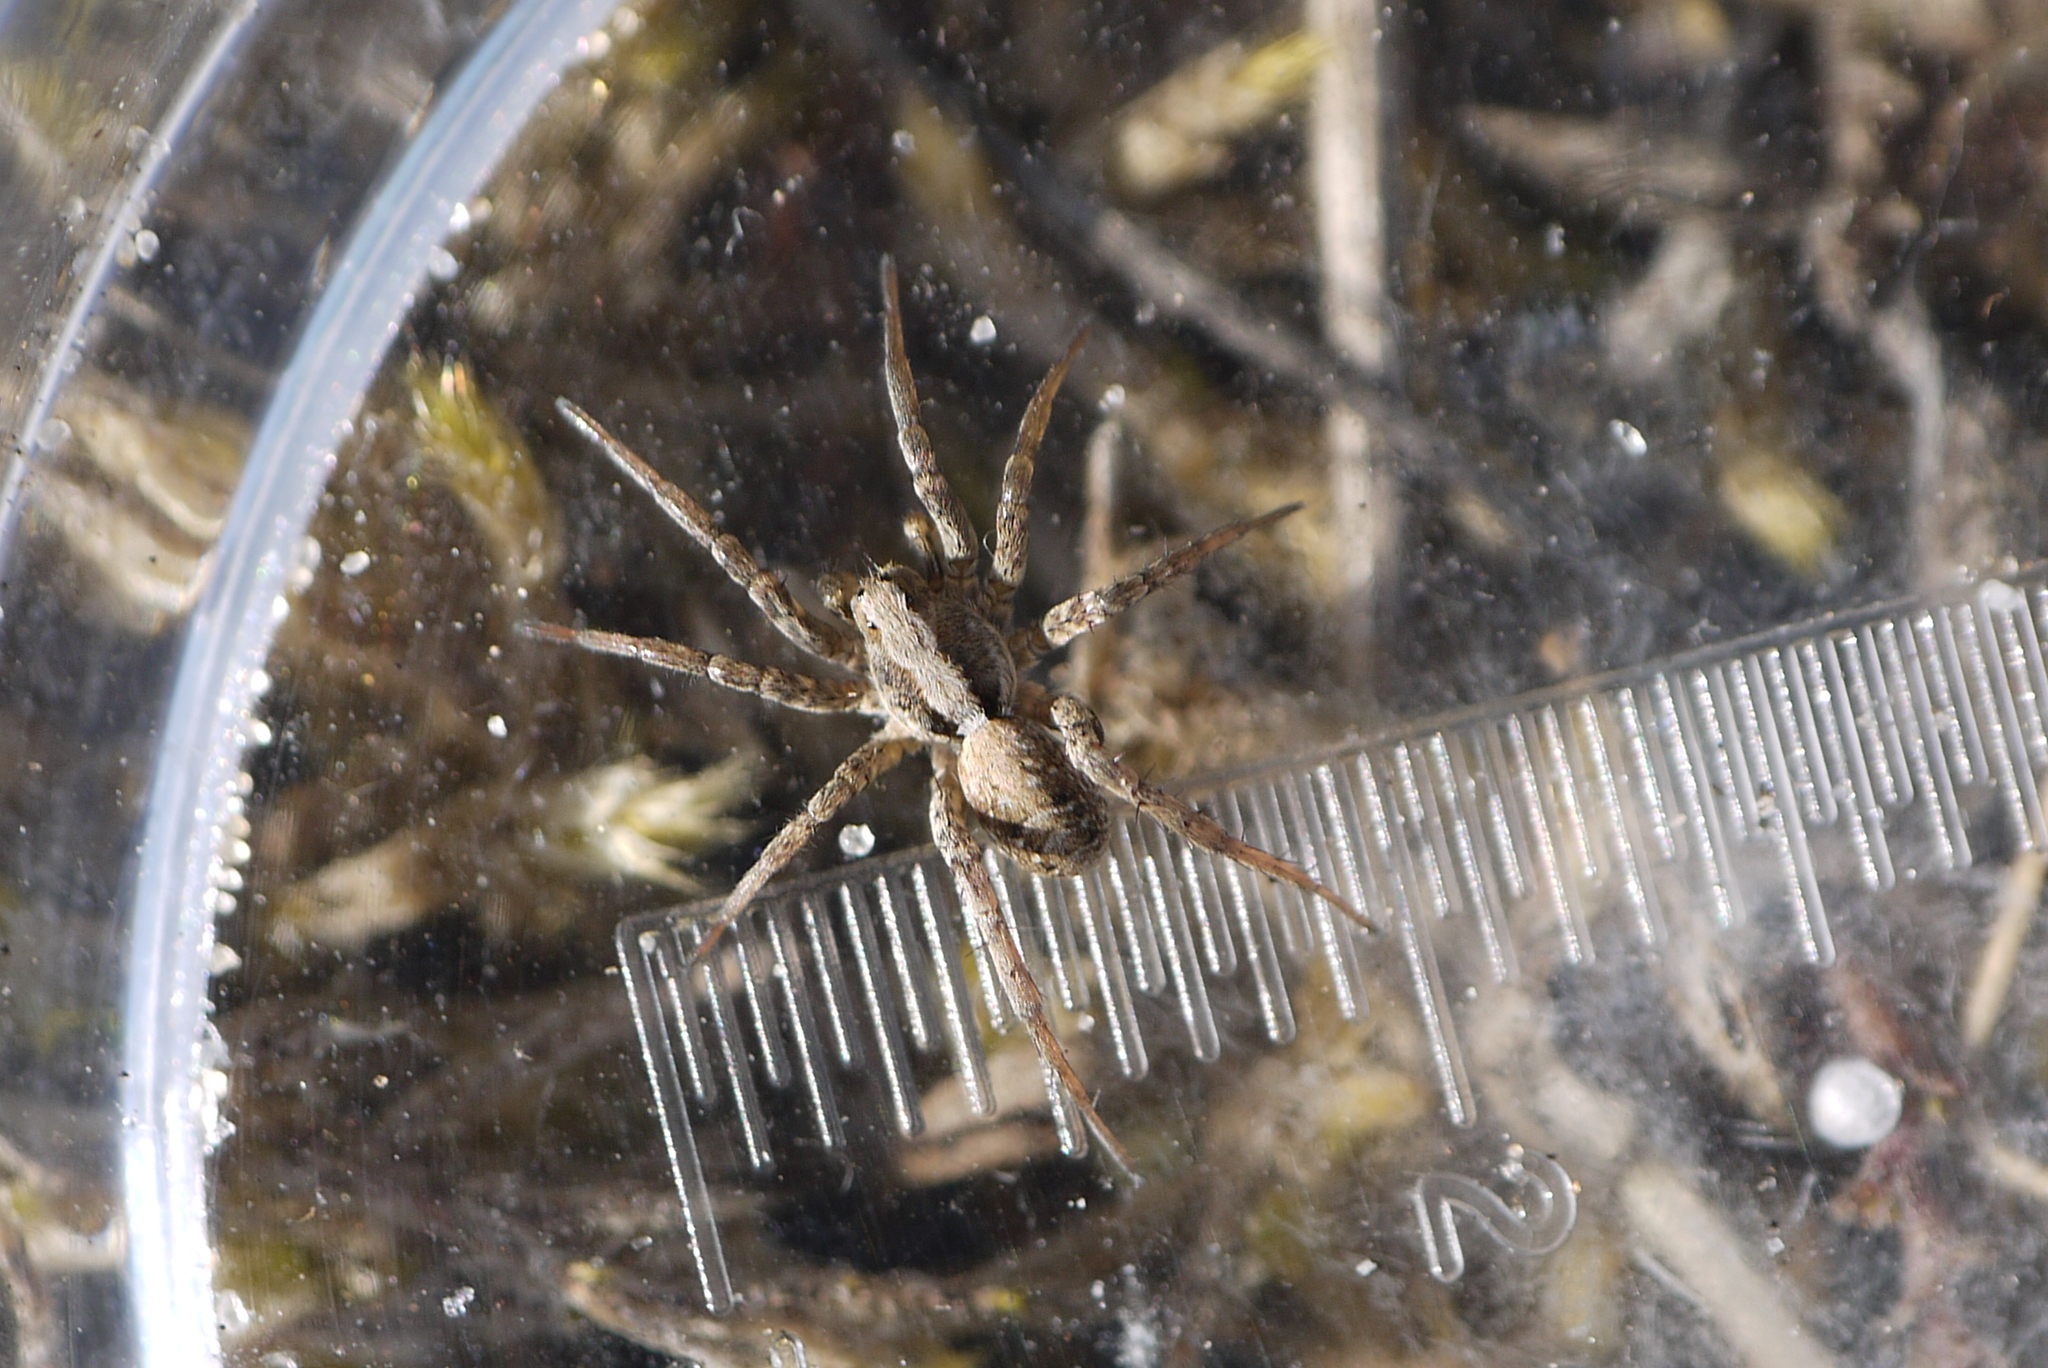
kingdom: Animalia
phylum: Arthropoda
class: Arachnida
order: Araneae
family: Lycosidae
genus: Xerolycosa
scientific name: Xerolycosa miniata
